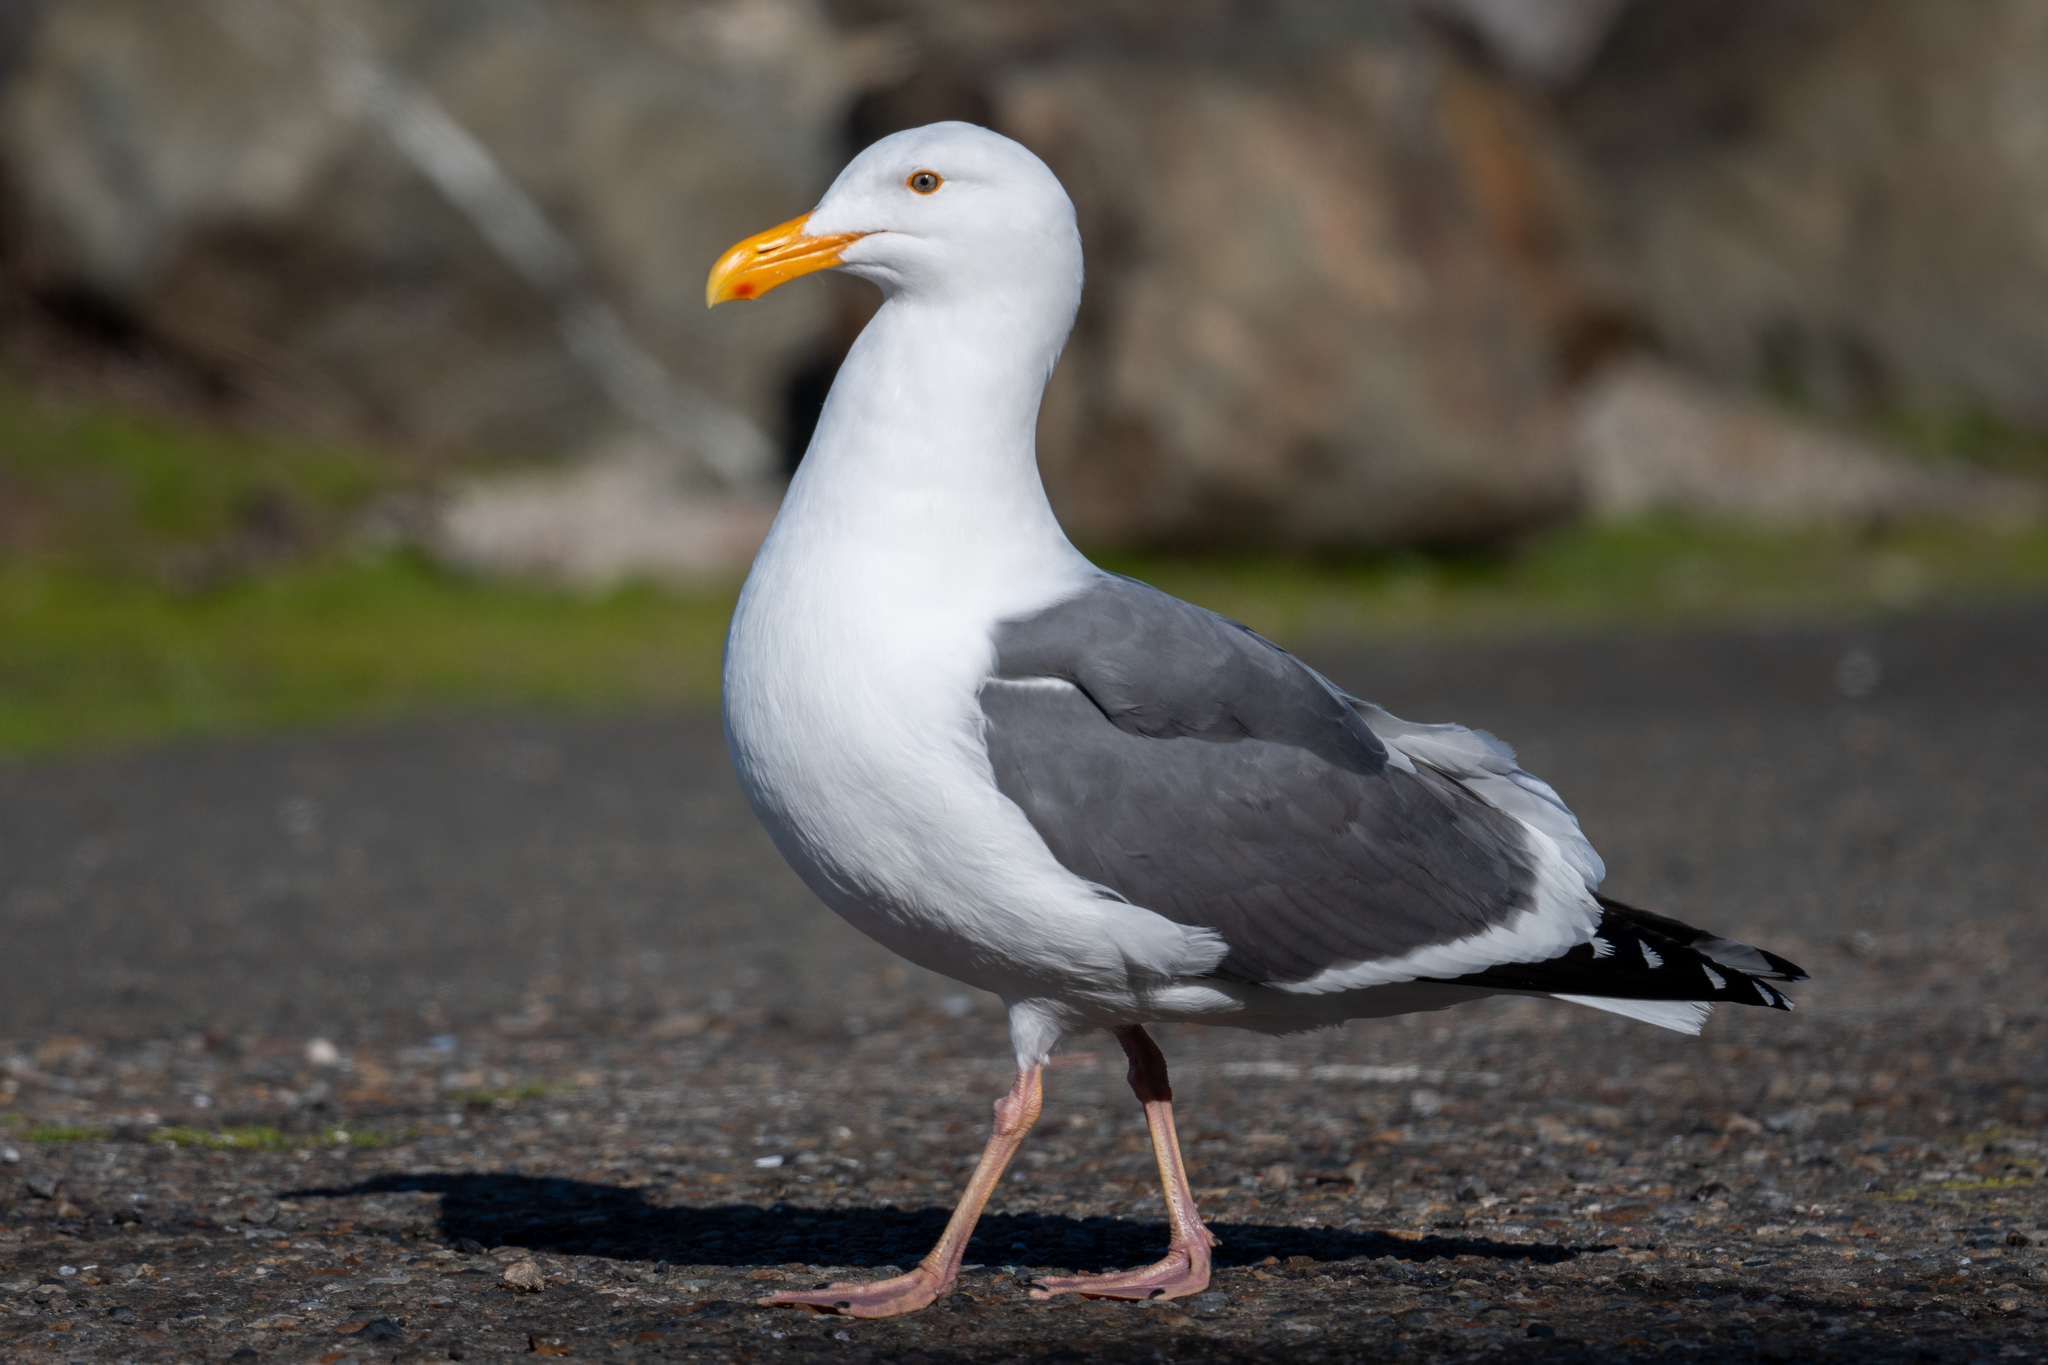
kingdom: Animalia
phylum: Chordata
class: Aves
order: Charadriiformes
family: Laridae
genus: Larus
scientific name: Larus occidentalis
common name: Western gull
